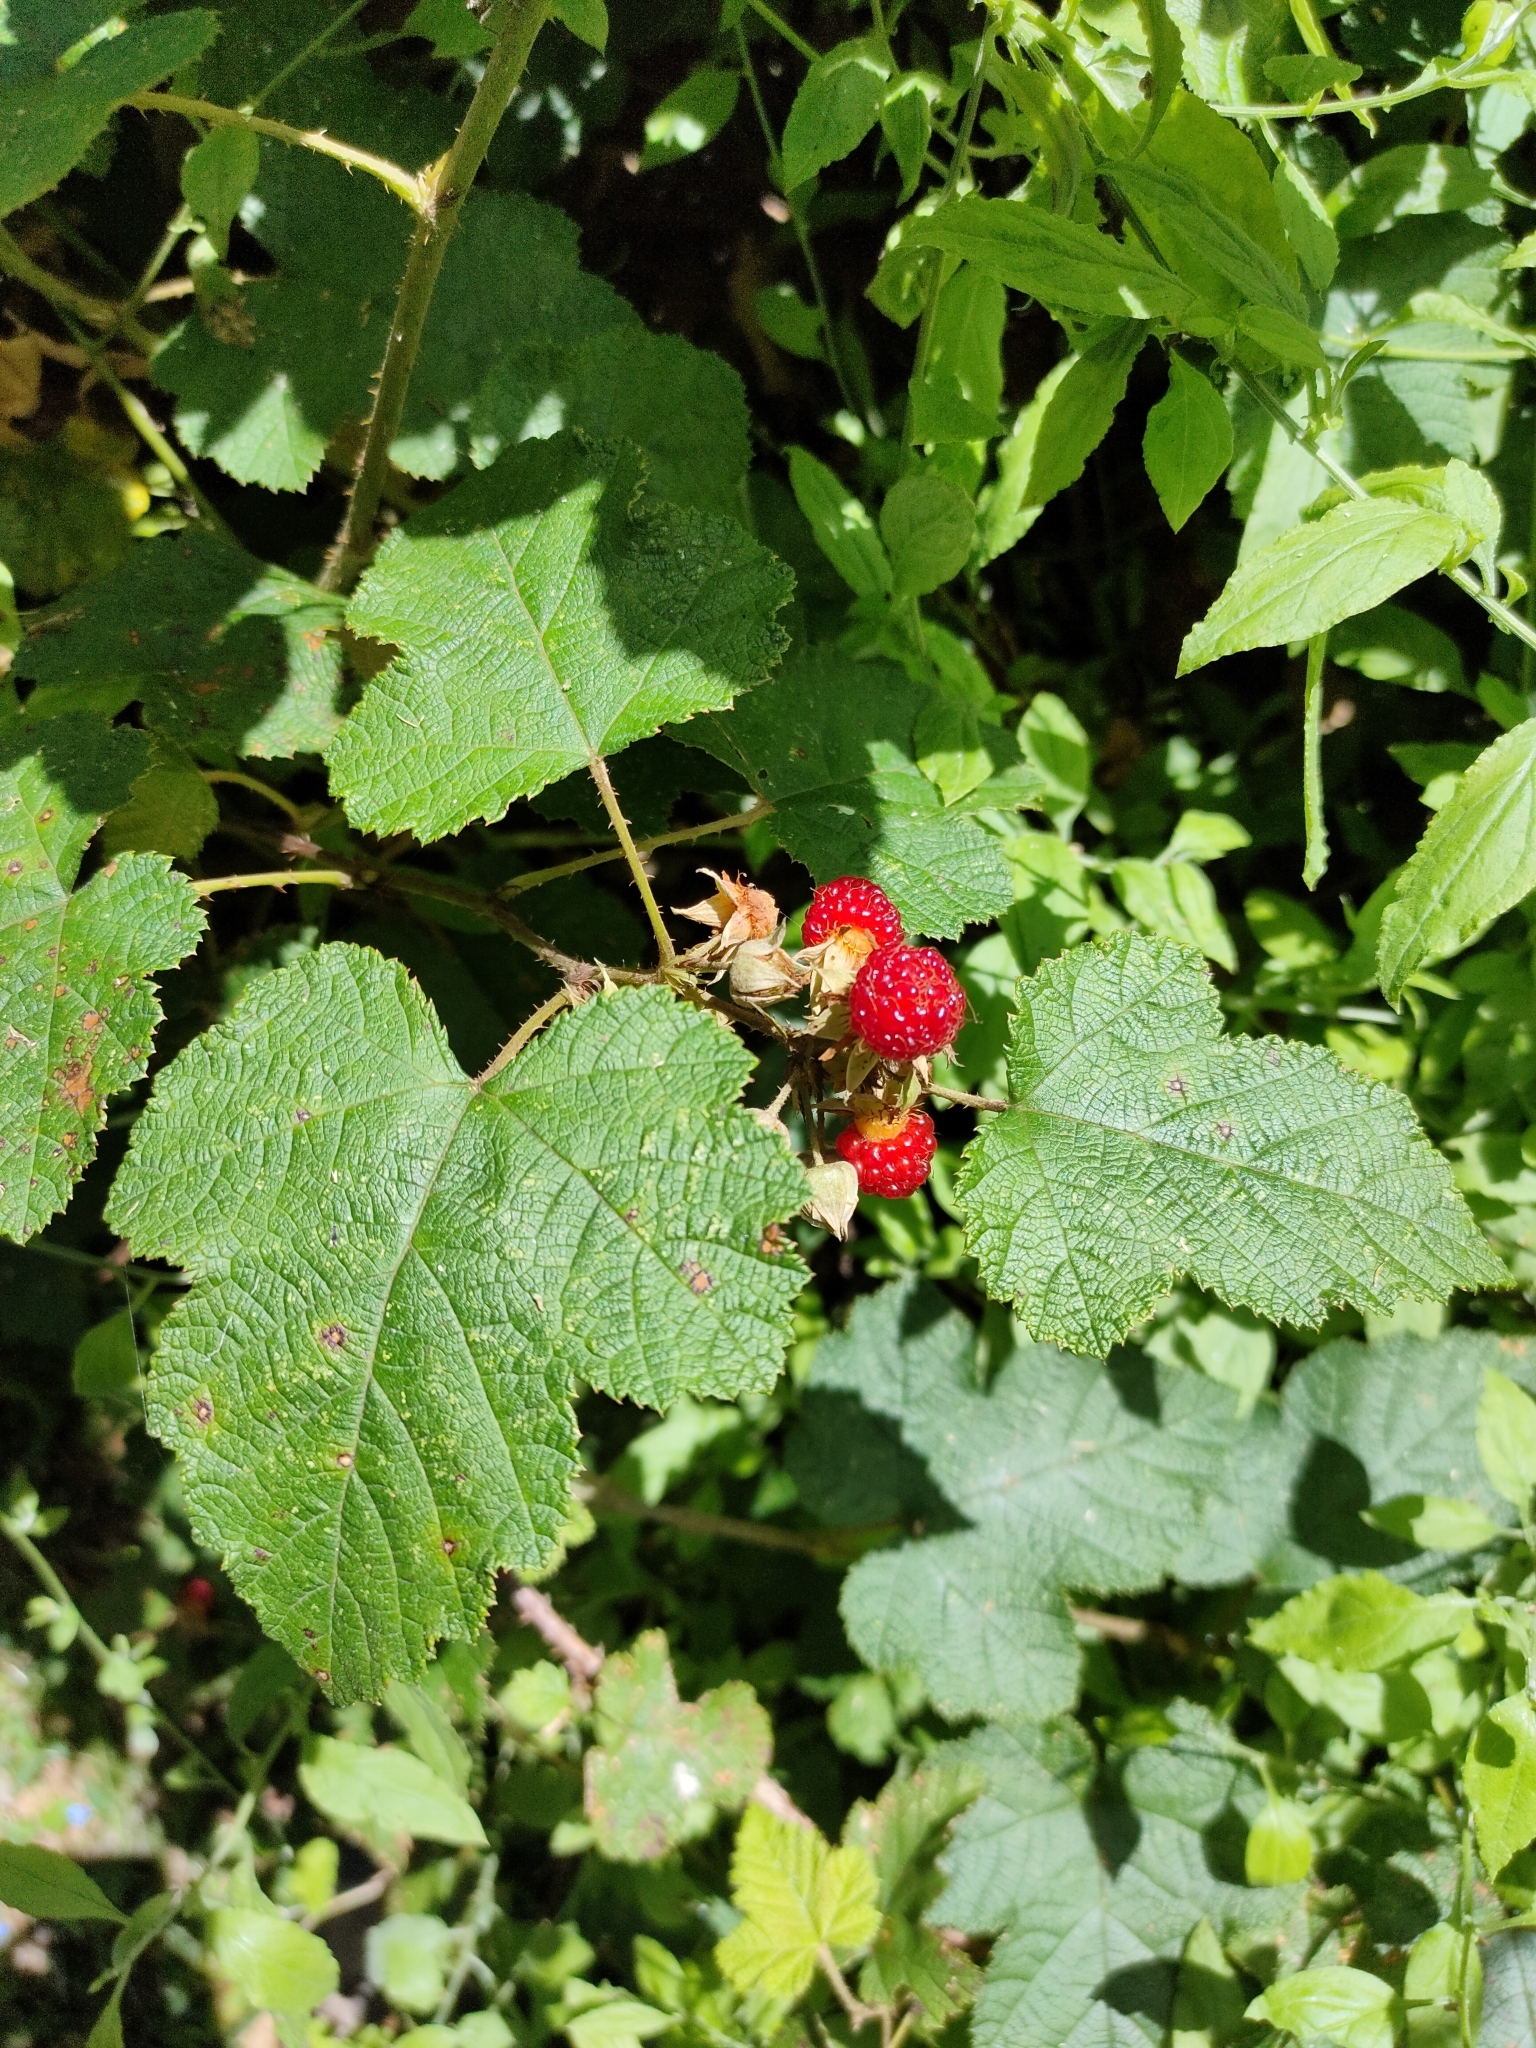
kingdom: Plantae
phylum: Tracheophyta
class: Magnoliopsida
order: Rosales
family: Rosaceae
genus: Rubus
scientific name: Rubus moluccanus
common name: Wild raspberry
